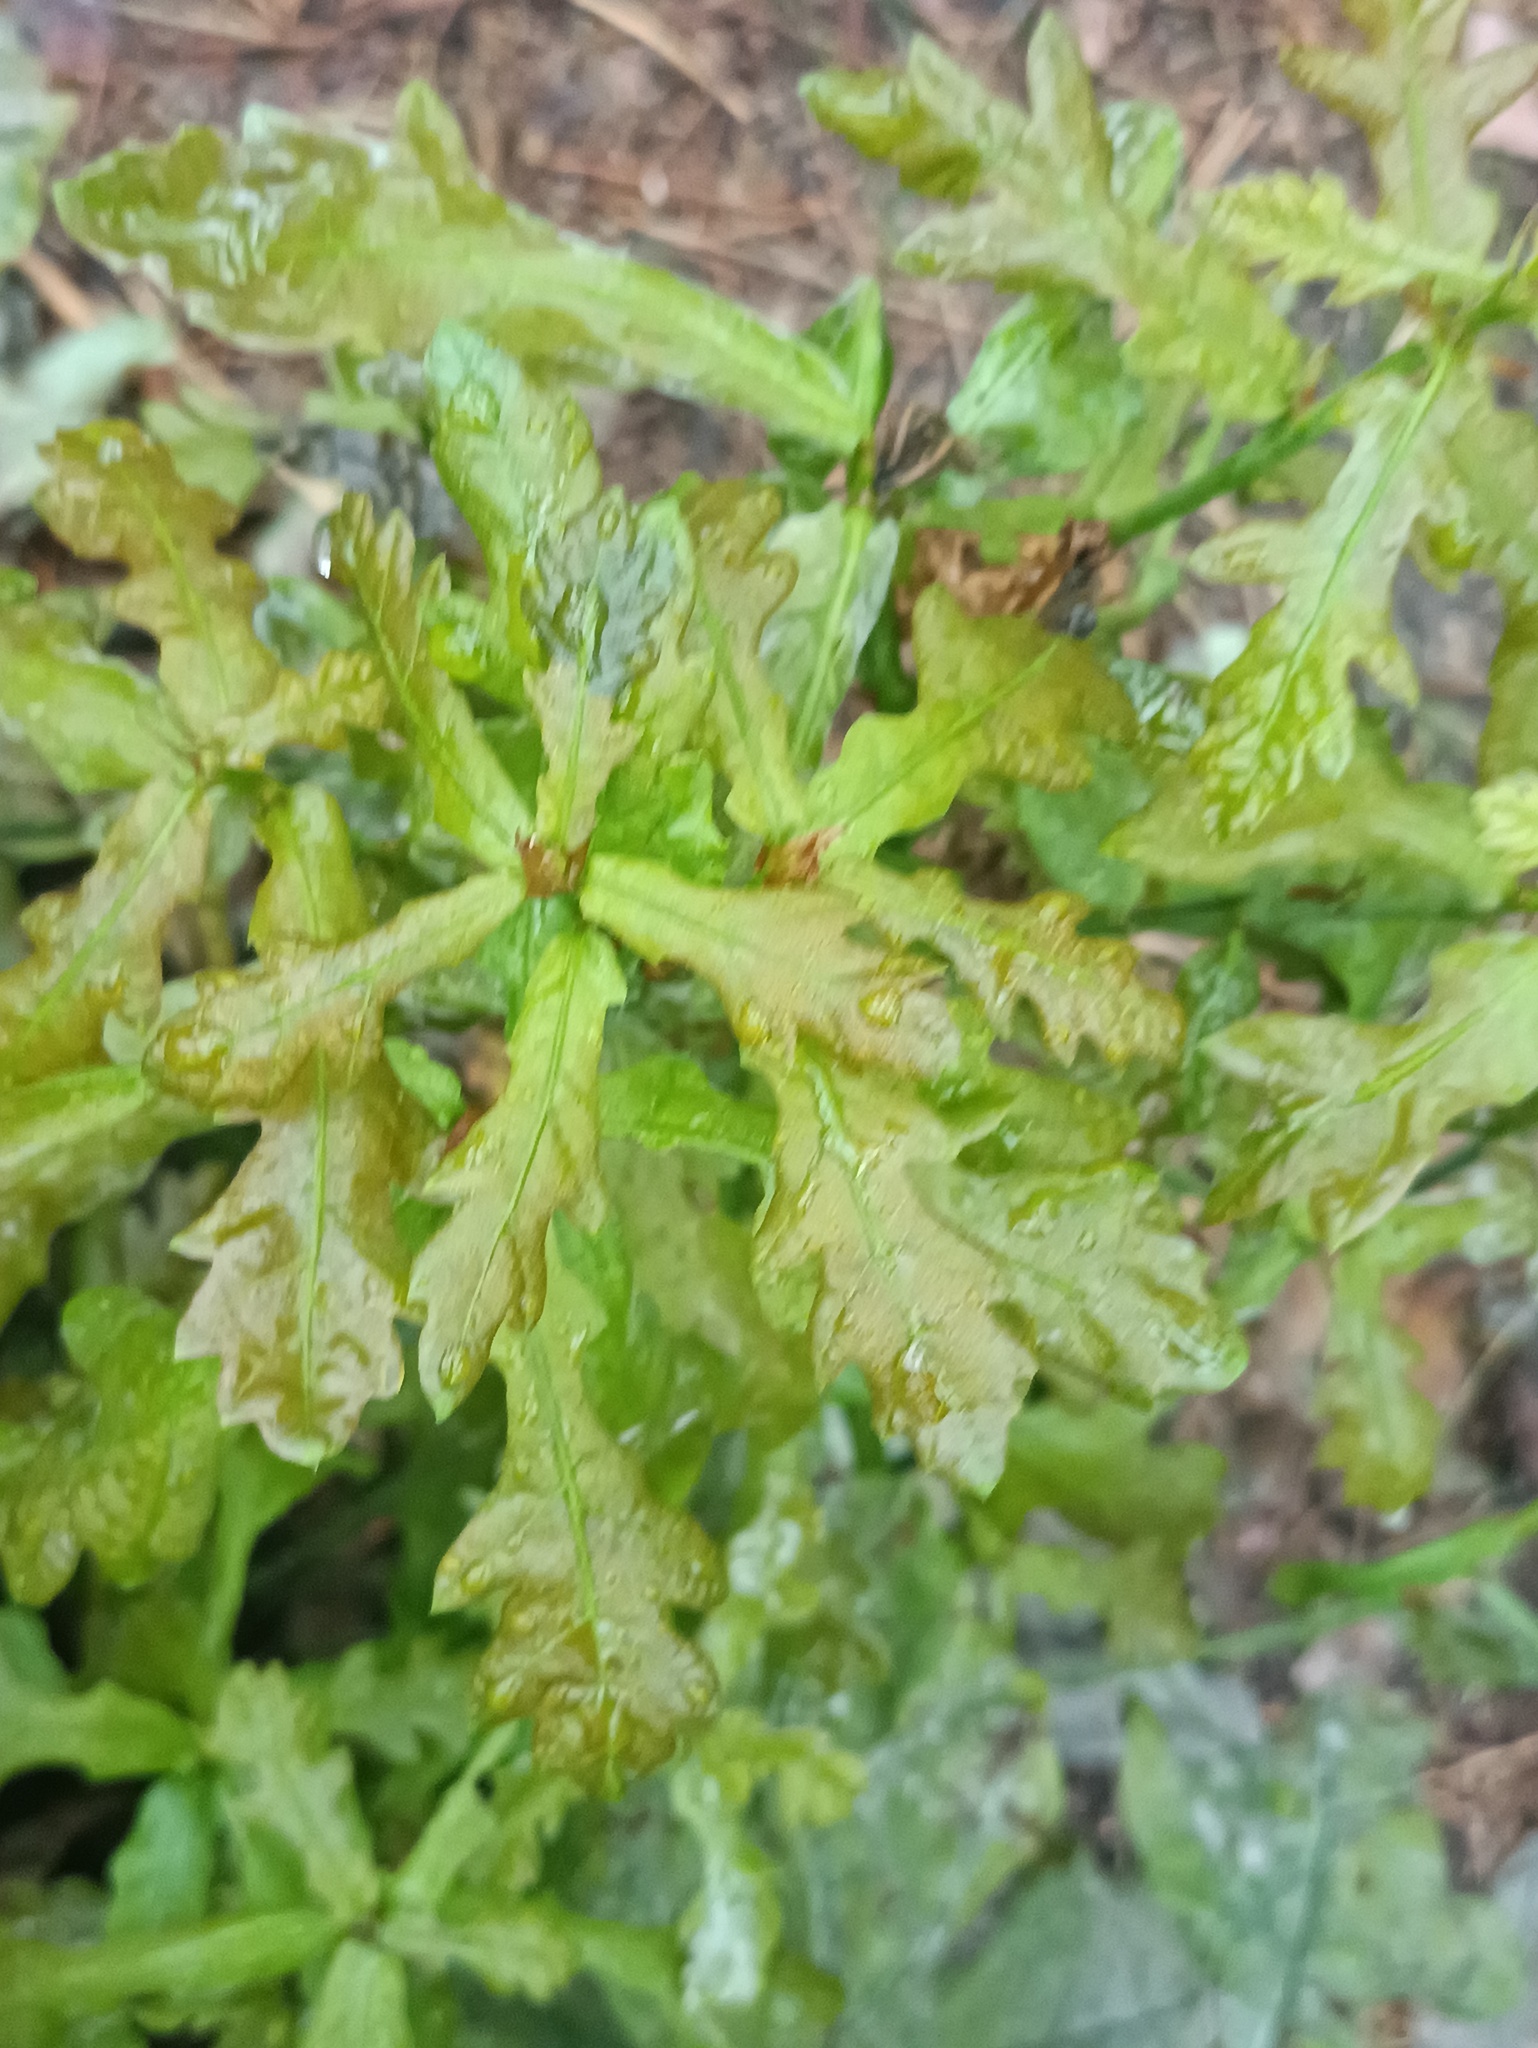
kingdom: Plantae
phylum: Tracheophyta
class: Magnoliopsida
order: Fagales
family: Fagaceae
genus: Quercus
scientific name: Quercus robur
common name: Pedunculate oak
